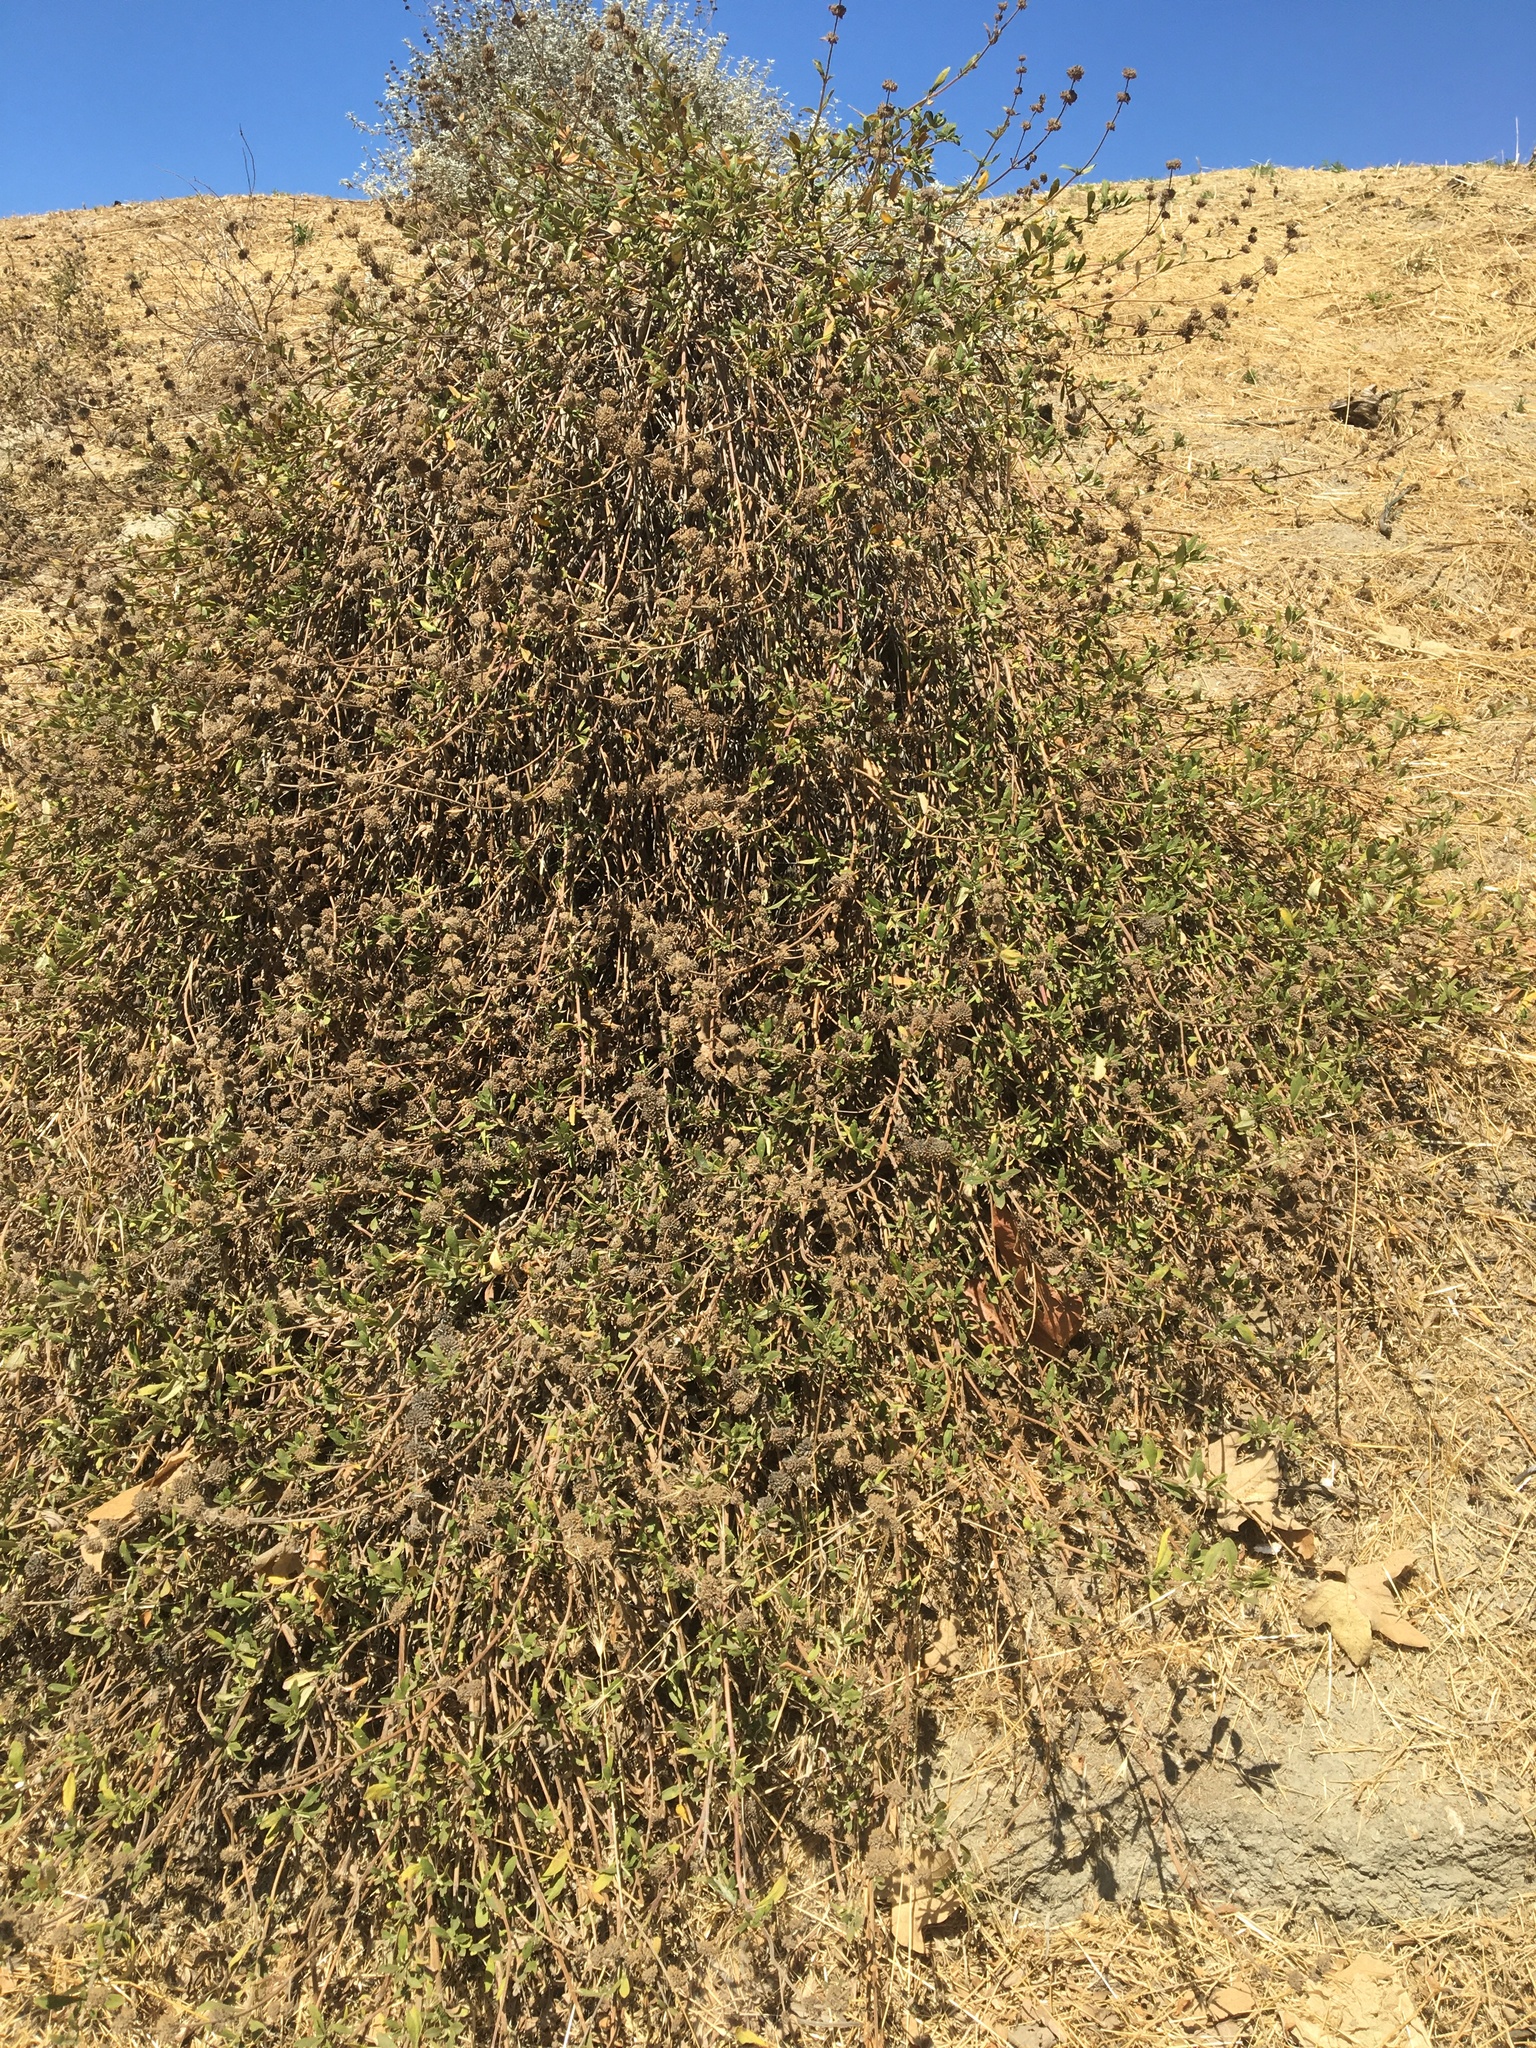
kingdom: Plantae
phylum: Tracheophyta
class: Magnoliopsida
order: Lamiales
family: Lamiaceae
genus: Salvia
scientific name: Salvia mellifera
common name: Black sage
